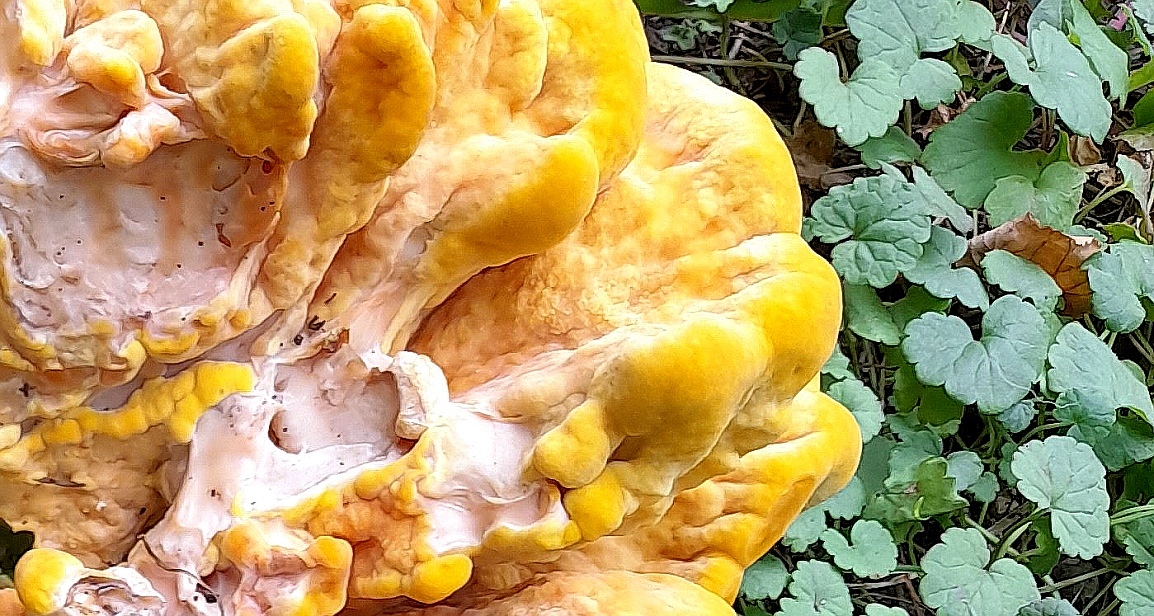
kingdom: Fungi
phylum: Basidiomycota
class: Agaricomycetes
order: Polyporales
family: Laetiporaceae
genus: Laetiporus
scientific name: Laetiporus sulphureus
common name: Chicken of the woods
